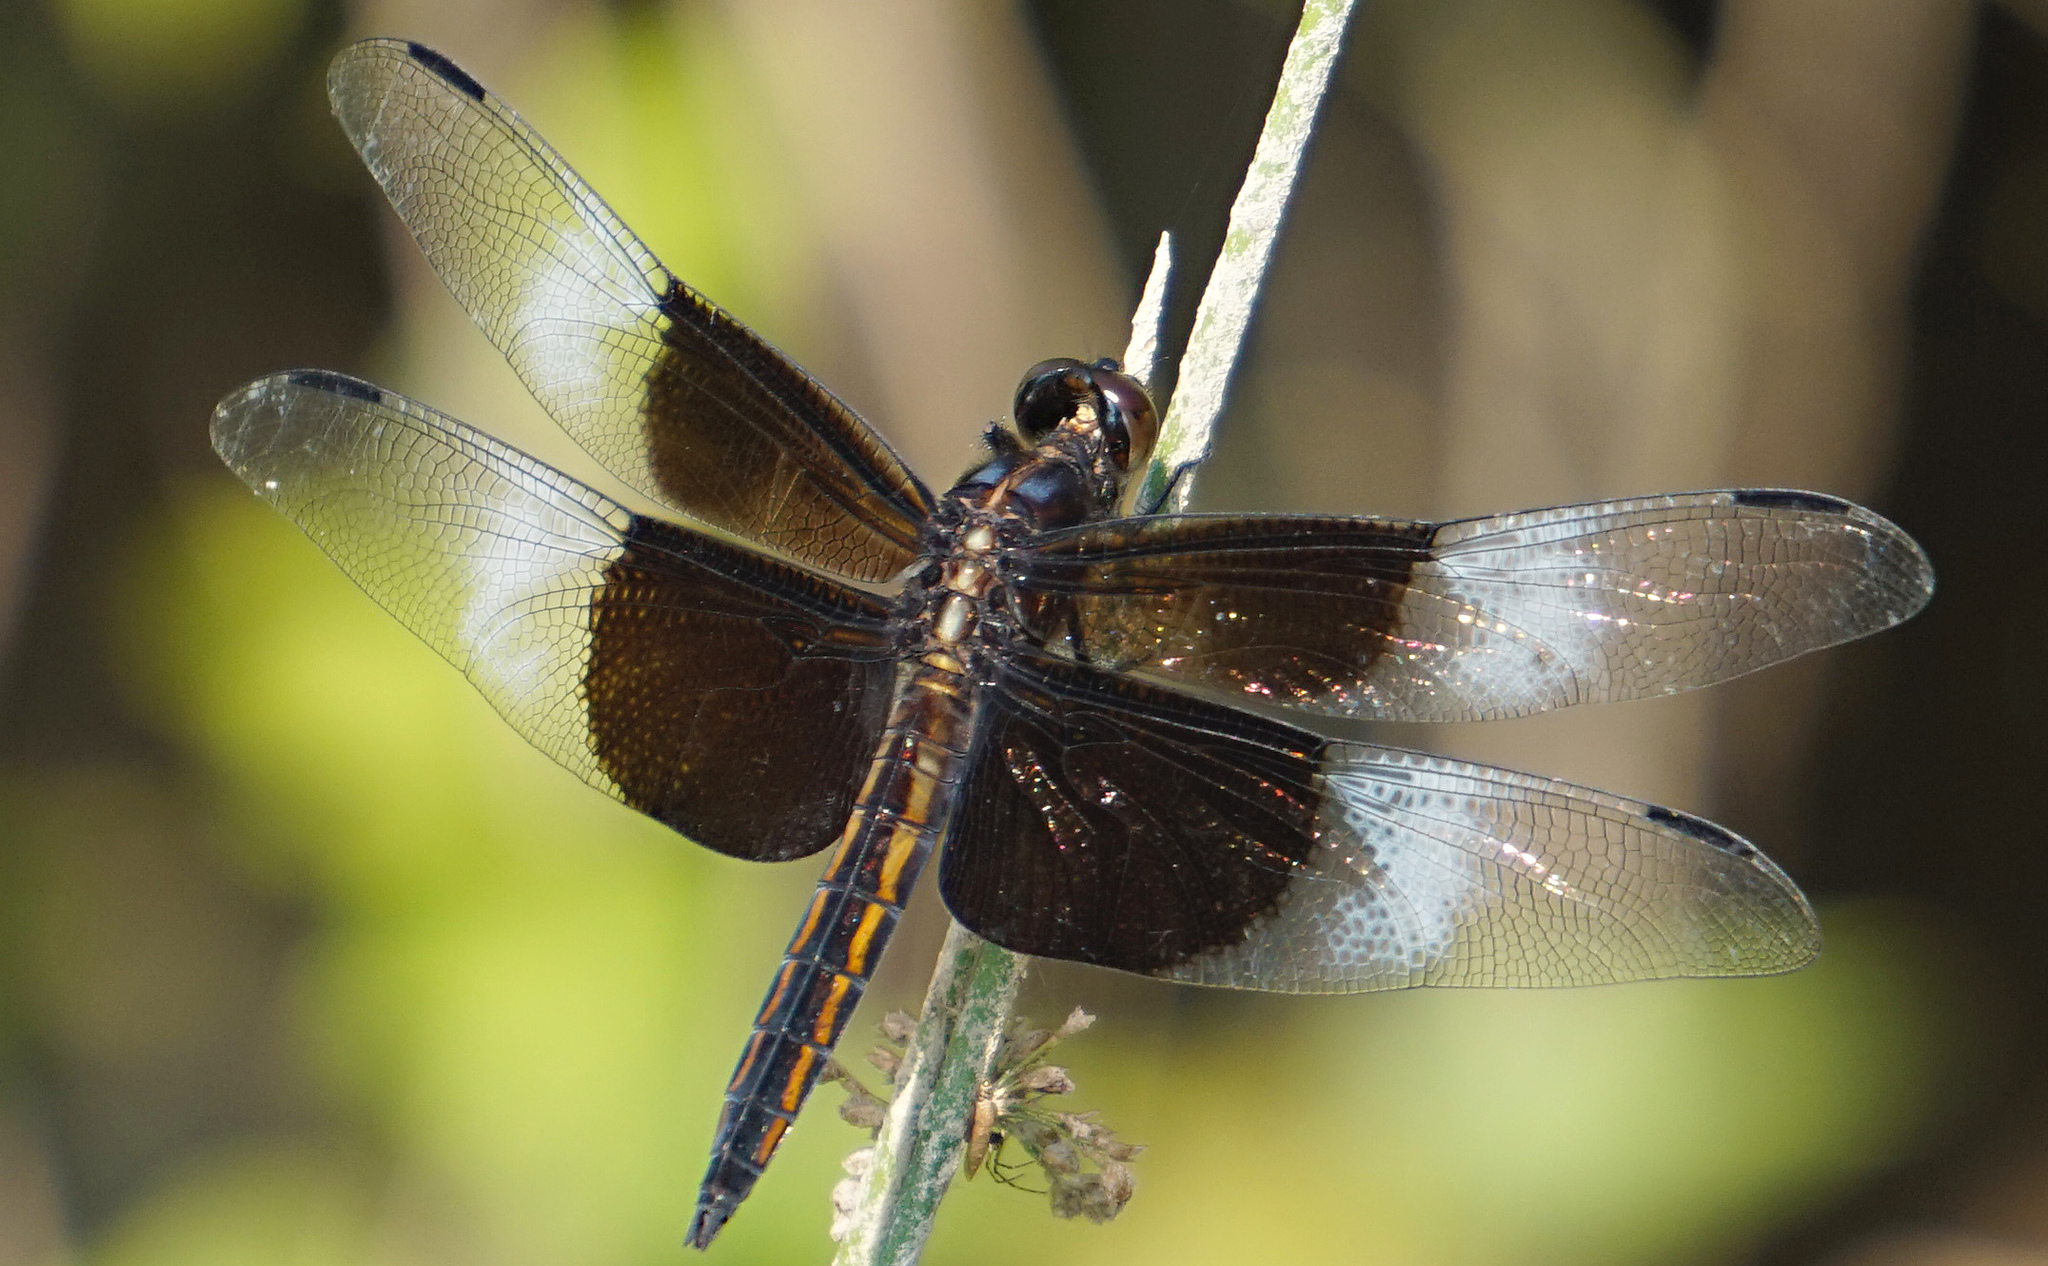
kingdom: Animalia
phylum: Arthropoda
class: Insecta
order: Odonata
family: Libellulidae
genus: Libellula
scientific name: Libellula luctuosa
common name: Widow skimmer
